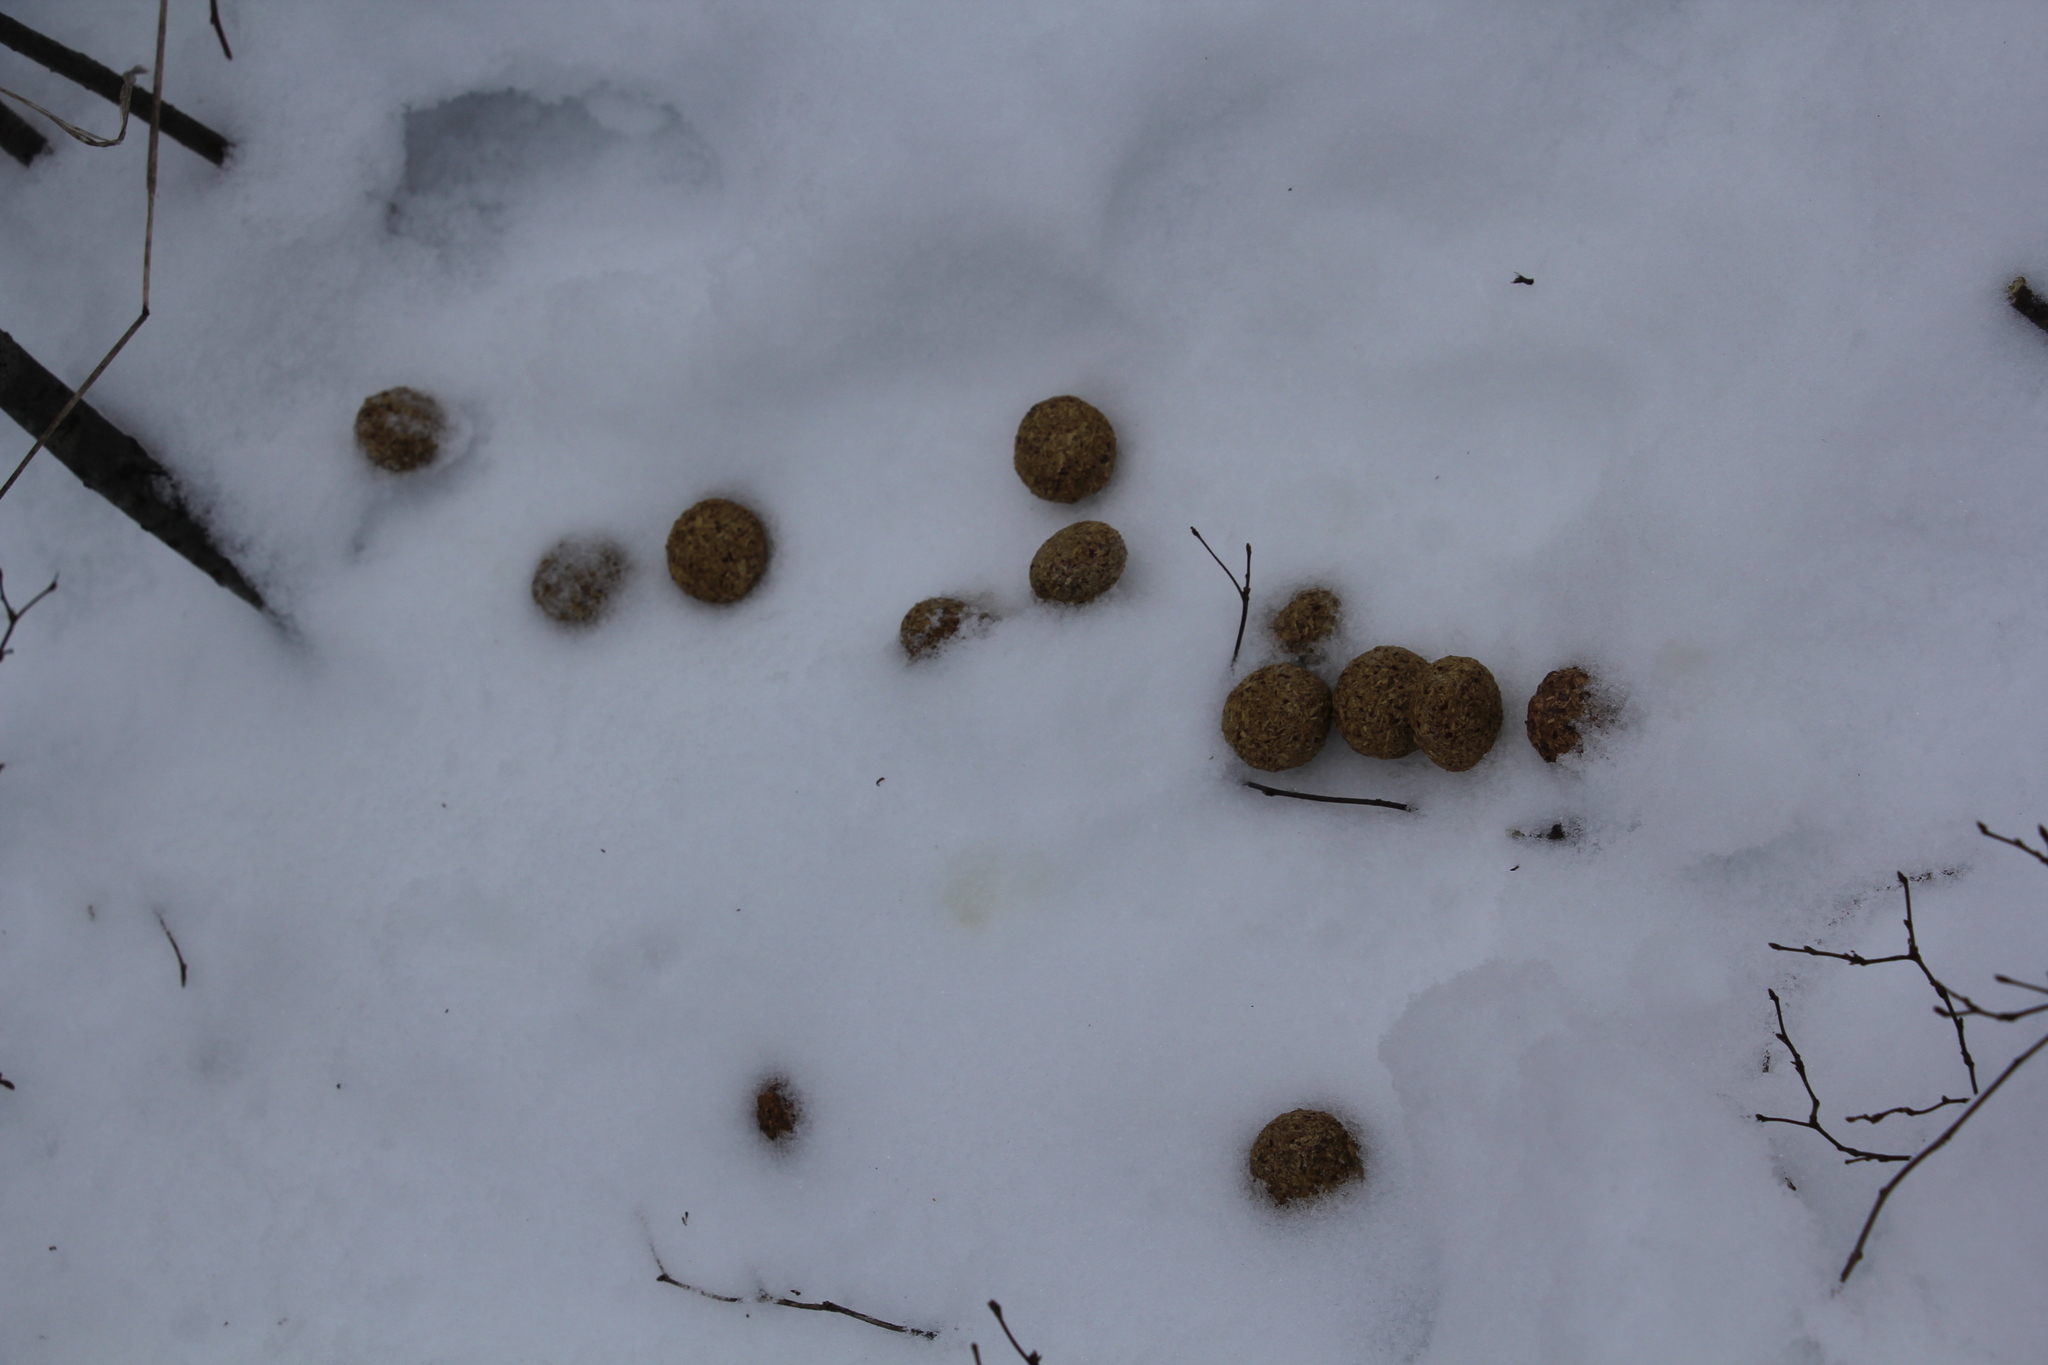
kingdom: Animalia
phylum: Chordata
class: Mammalia
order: Lagomorpha
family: Leporidae
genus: Lepus
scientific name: Lepus timidus
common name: Mountain hare
